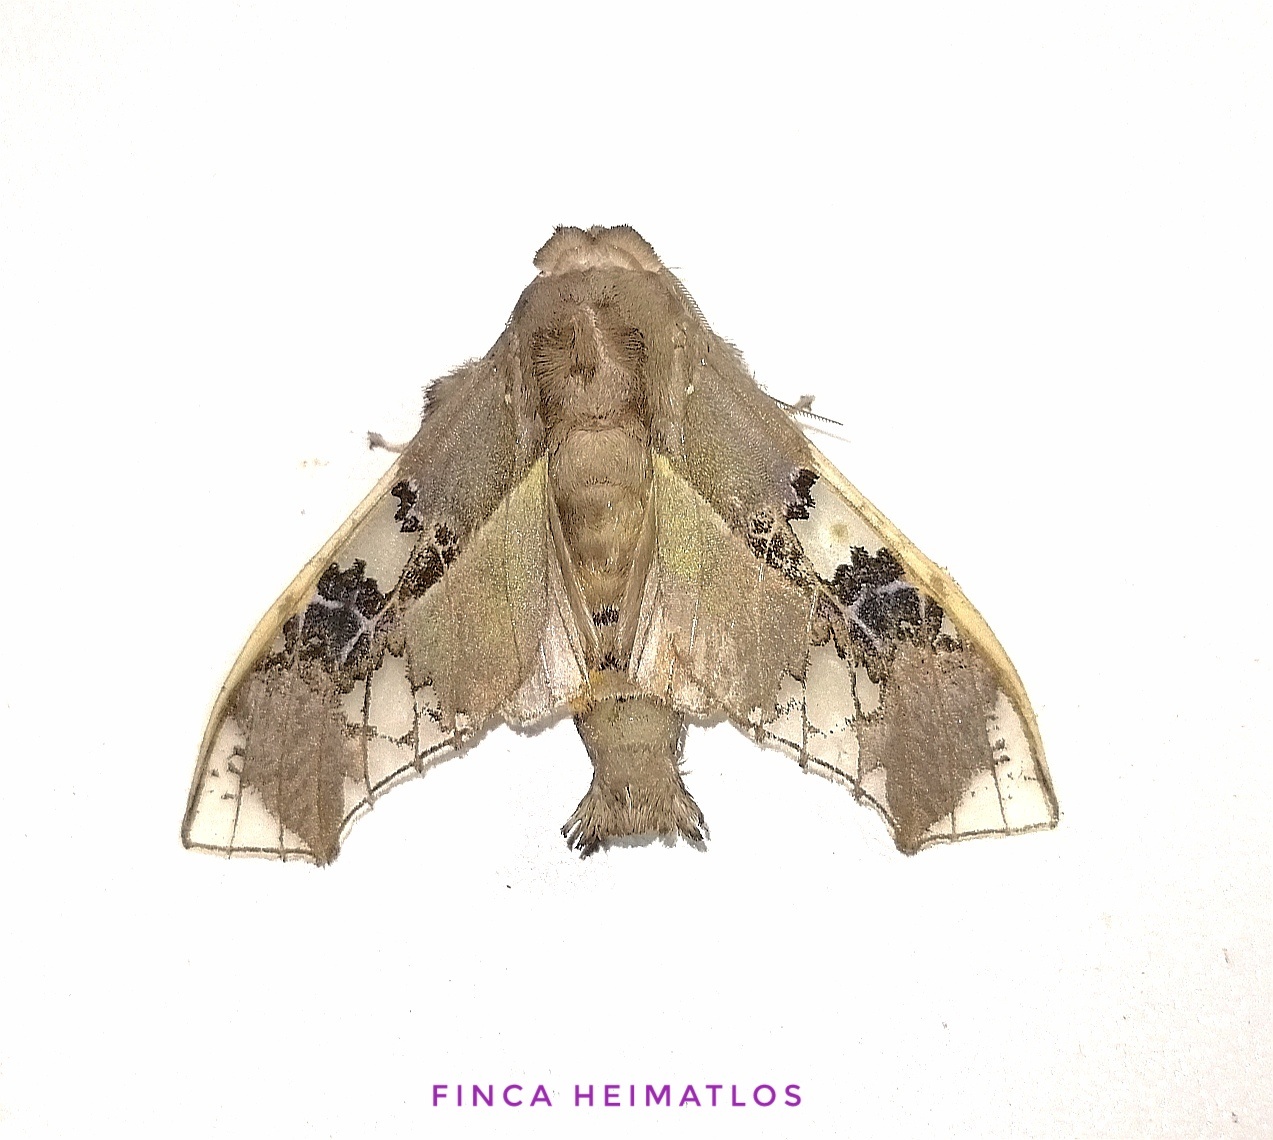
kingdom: Animalia
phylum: Arthropoda
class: Insecta
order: Lepidoptera
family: Erebidae
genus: Parathyris
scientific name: Parathyris cedonulli
